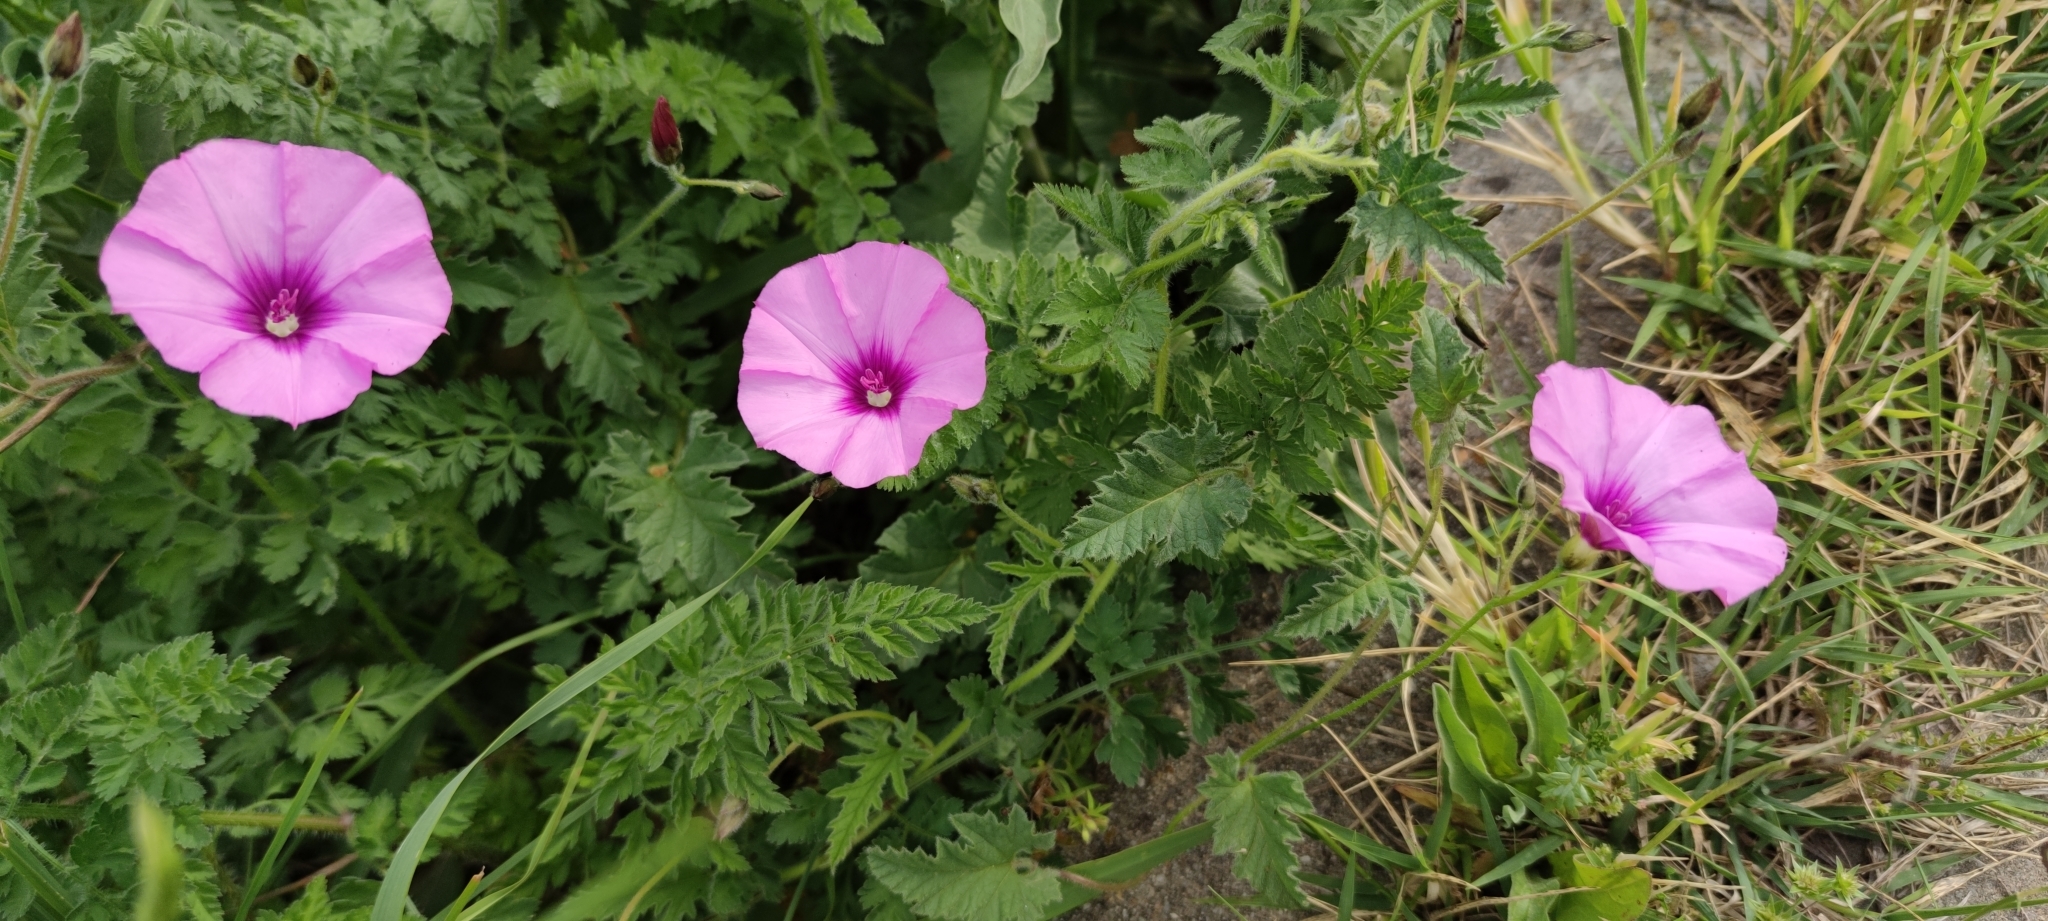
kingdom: Plantae
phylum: Tracheophyta
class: Magnoliopsida
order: Solanales
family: Convolvulaceae
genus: Convolvulus
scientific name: Convolvulus althaeoides
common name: Mallow bindweed
